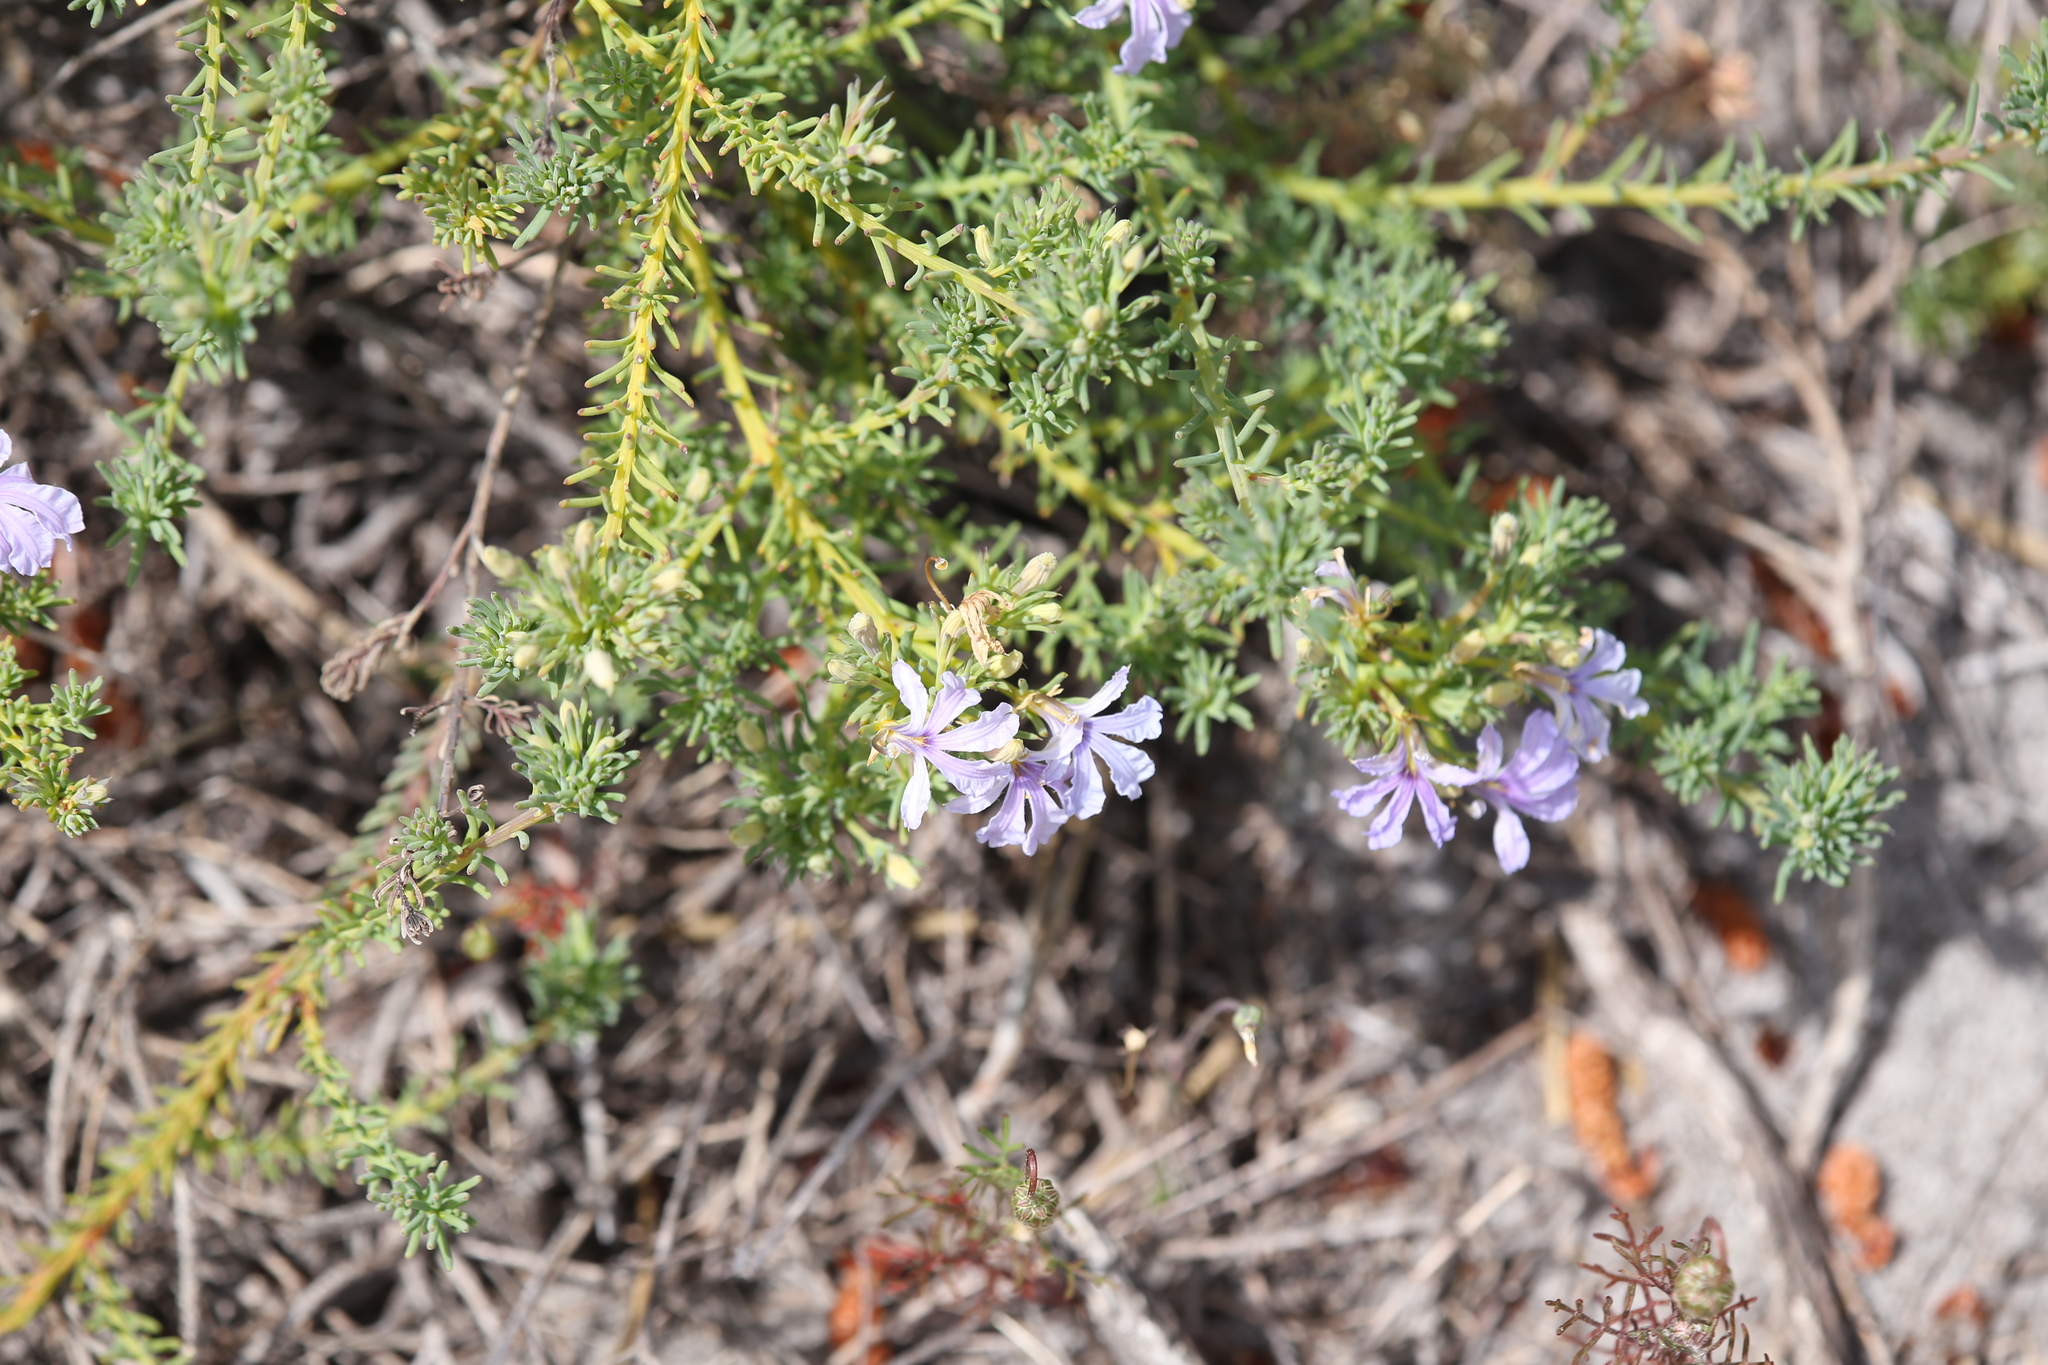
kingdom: Plantae
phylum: Tracheophyta
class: Magnoliopsida
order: Asterales
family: Goodeniaceae
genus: Lechenaultia
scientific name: Lechenaultia floribunda
